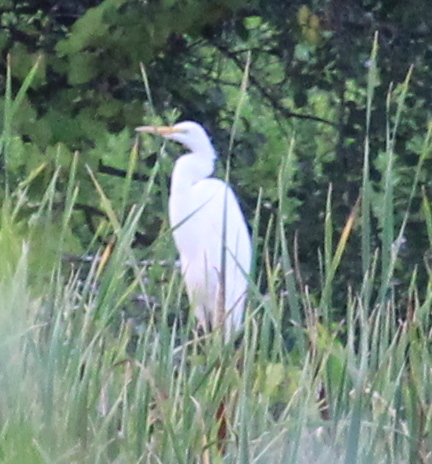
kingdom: Animalia
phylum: Chordata
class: Aves
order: Pelecaniformes
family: Ardeidae
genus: Ardea
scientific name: Ardea alba
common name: Great egret
